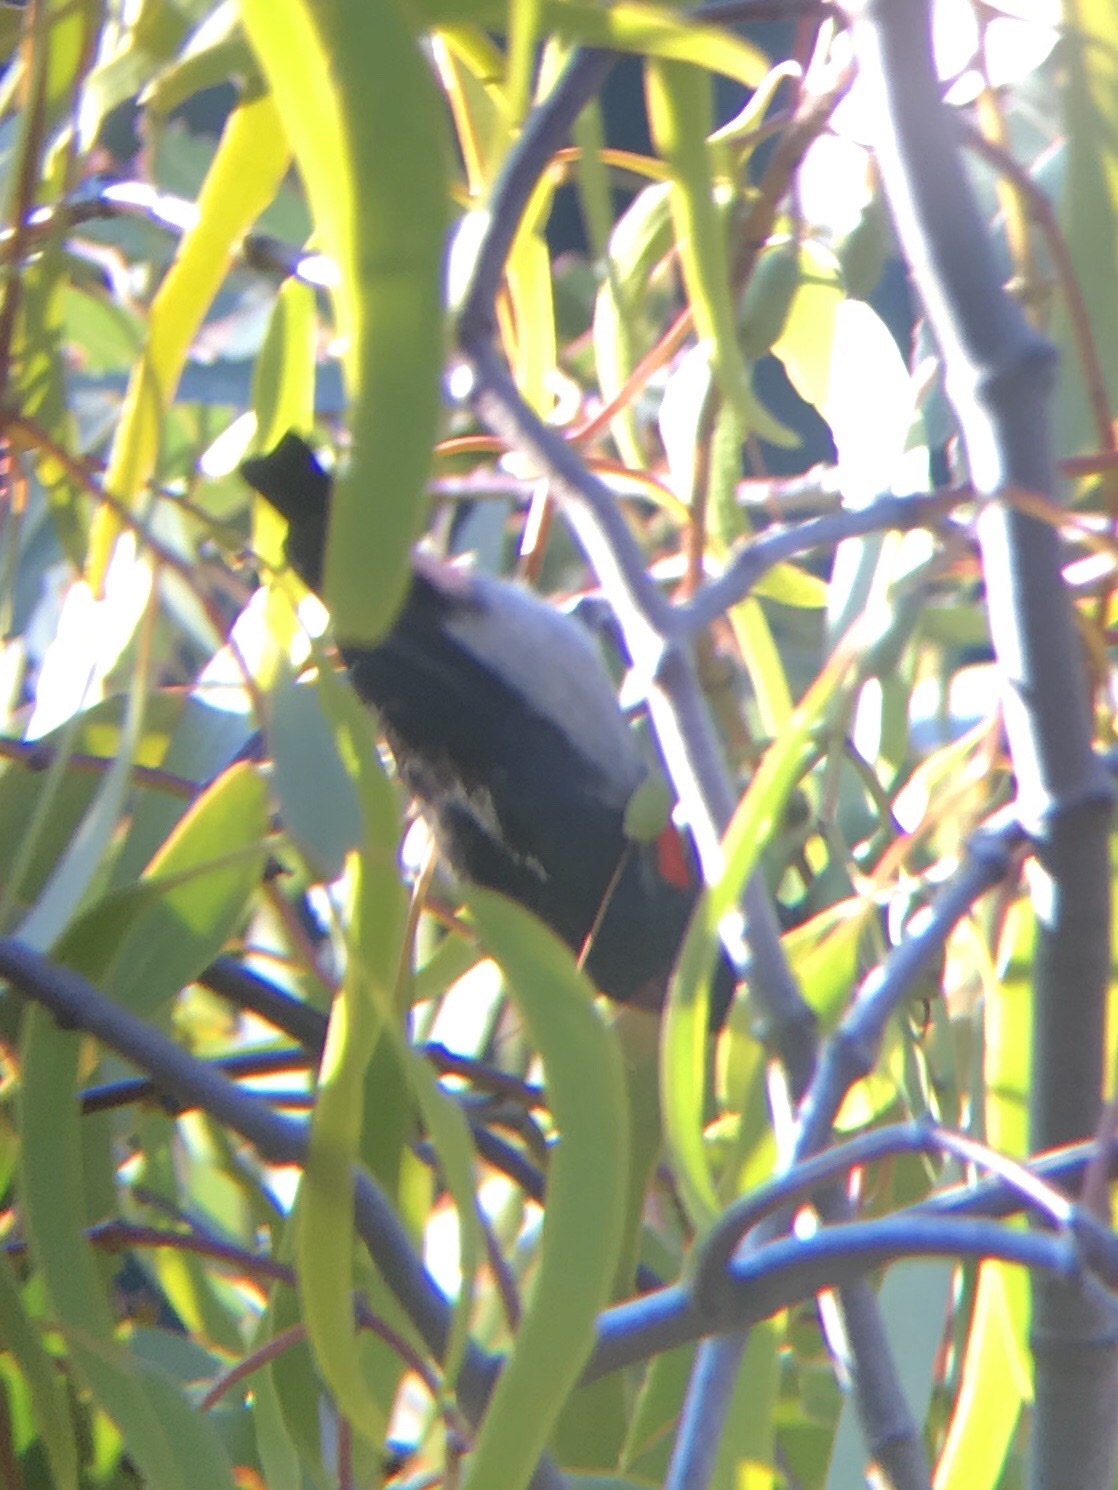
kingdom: Animalia
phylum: Chordata
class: Aves
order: Passeriformes
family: Dicaeidae
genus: Dicaeum
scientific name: Dicaeum hirundinaceum
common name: Mistletoebird
